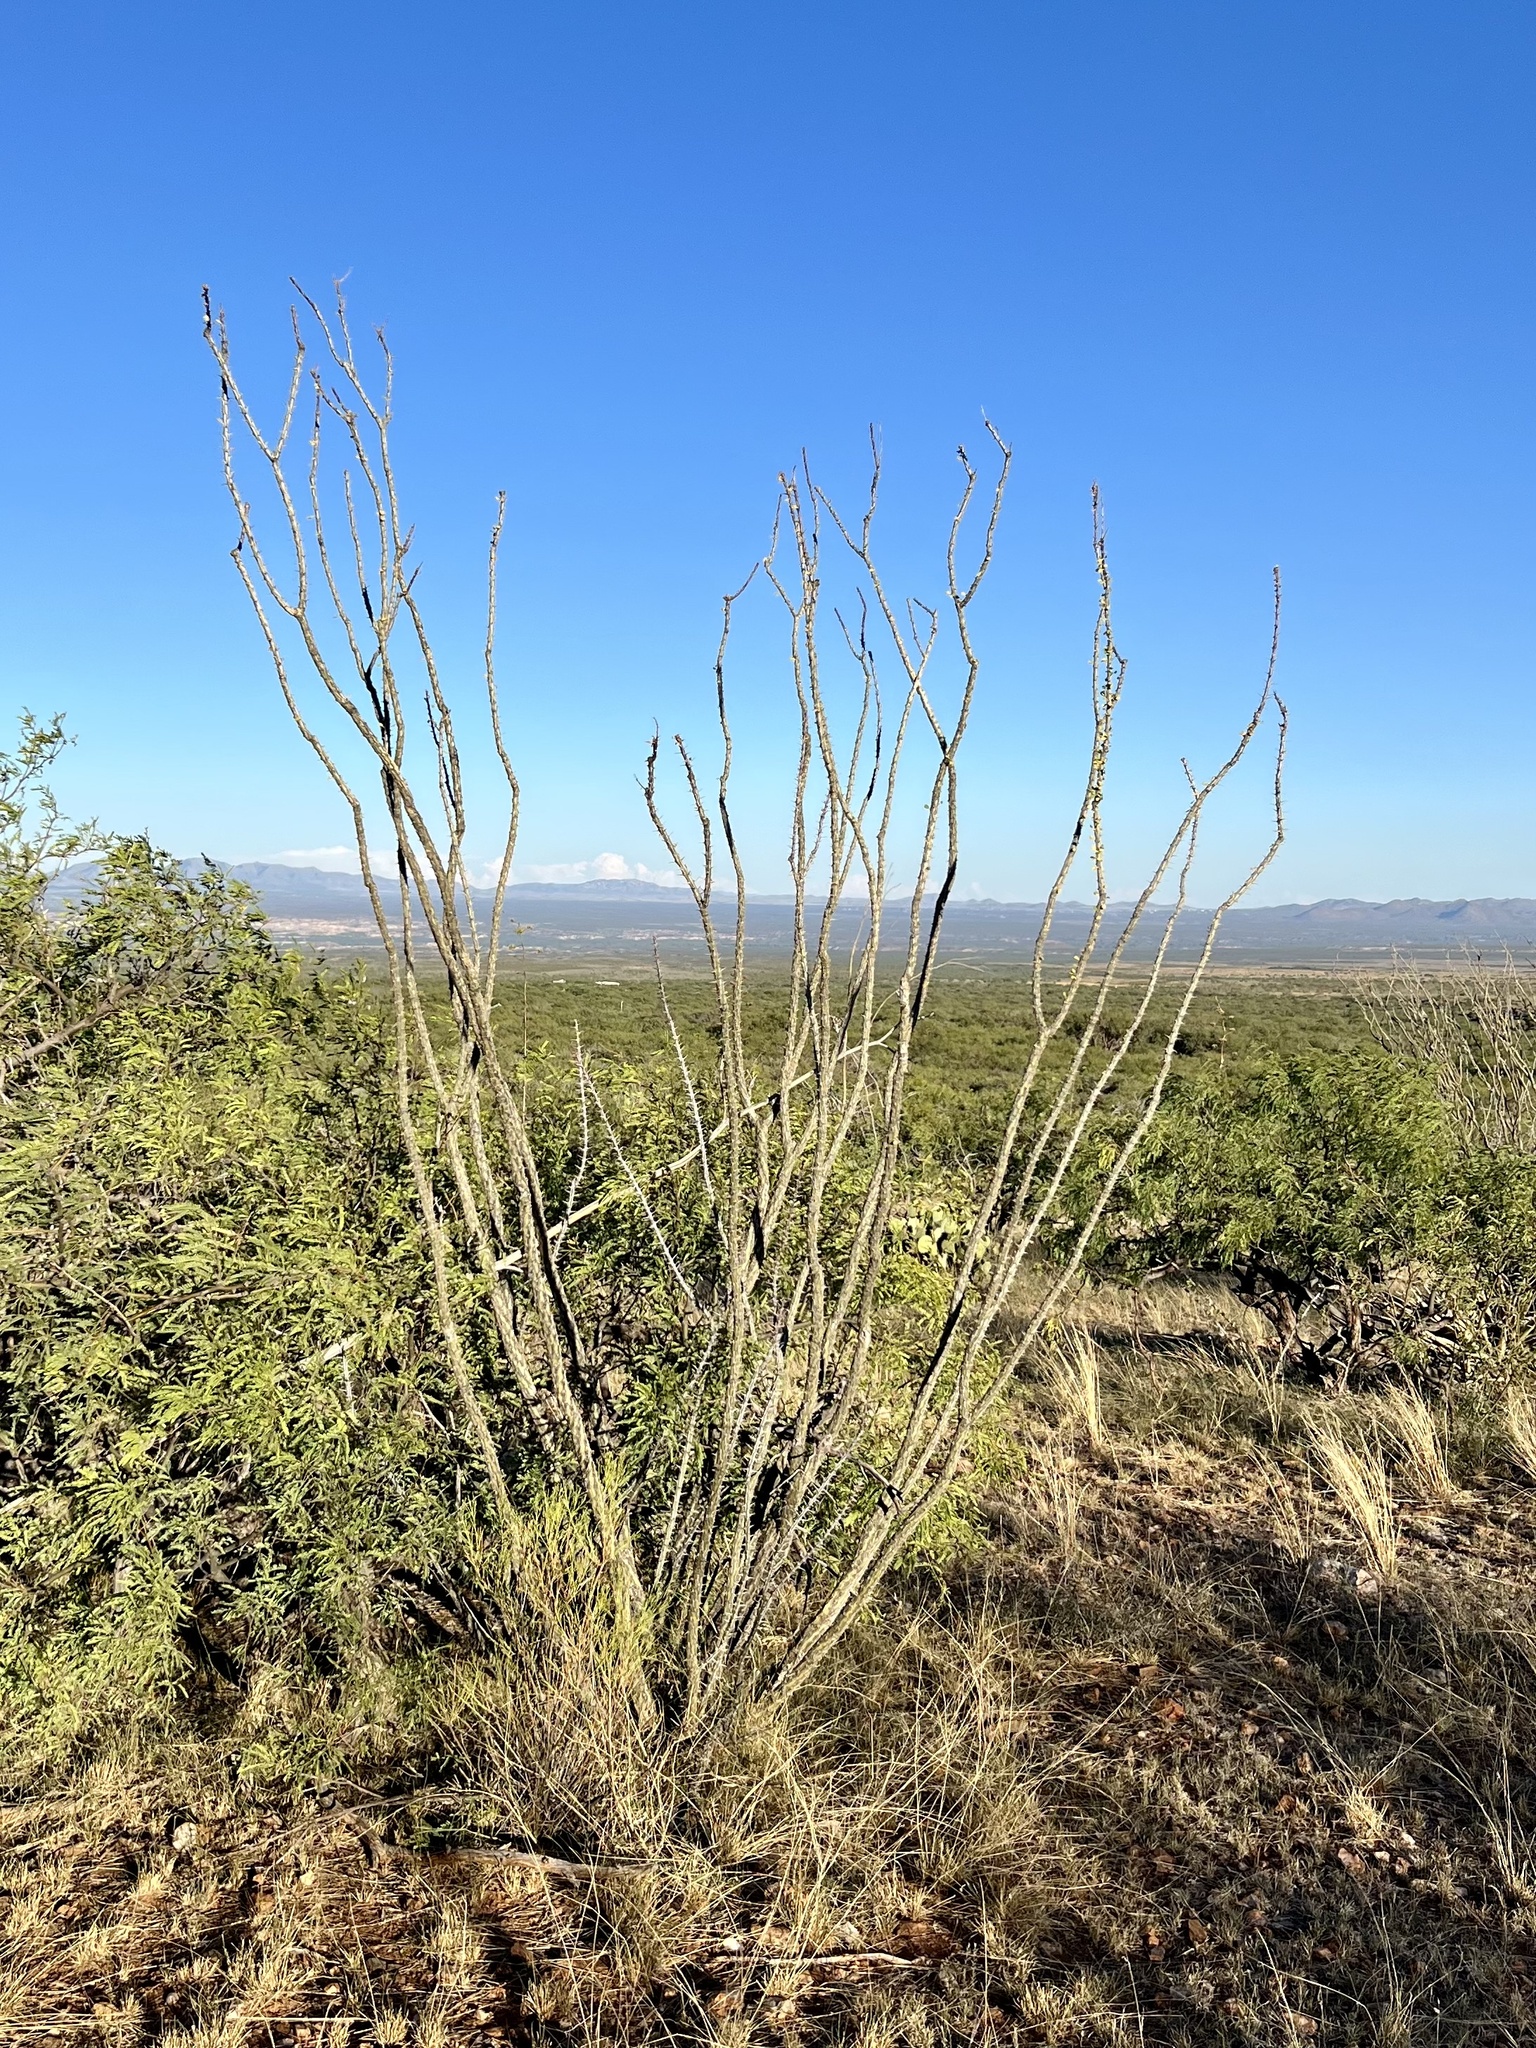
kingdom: Plantae
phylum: Tracheophyta
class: Magnoliopsida
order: Ericales
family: Fouquieriaceae
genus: Fouquieria
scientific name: Fouquieria splendens
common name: Vine-cactus
